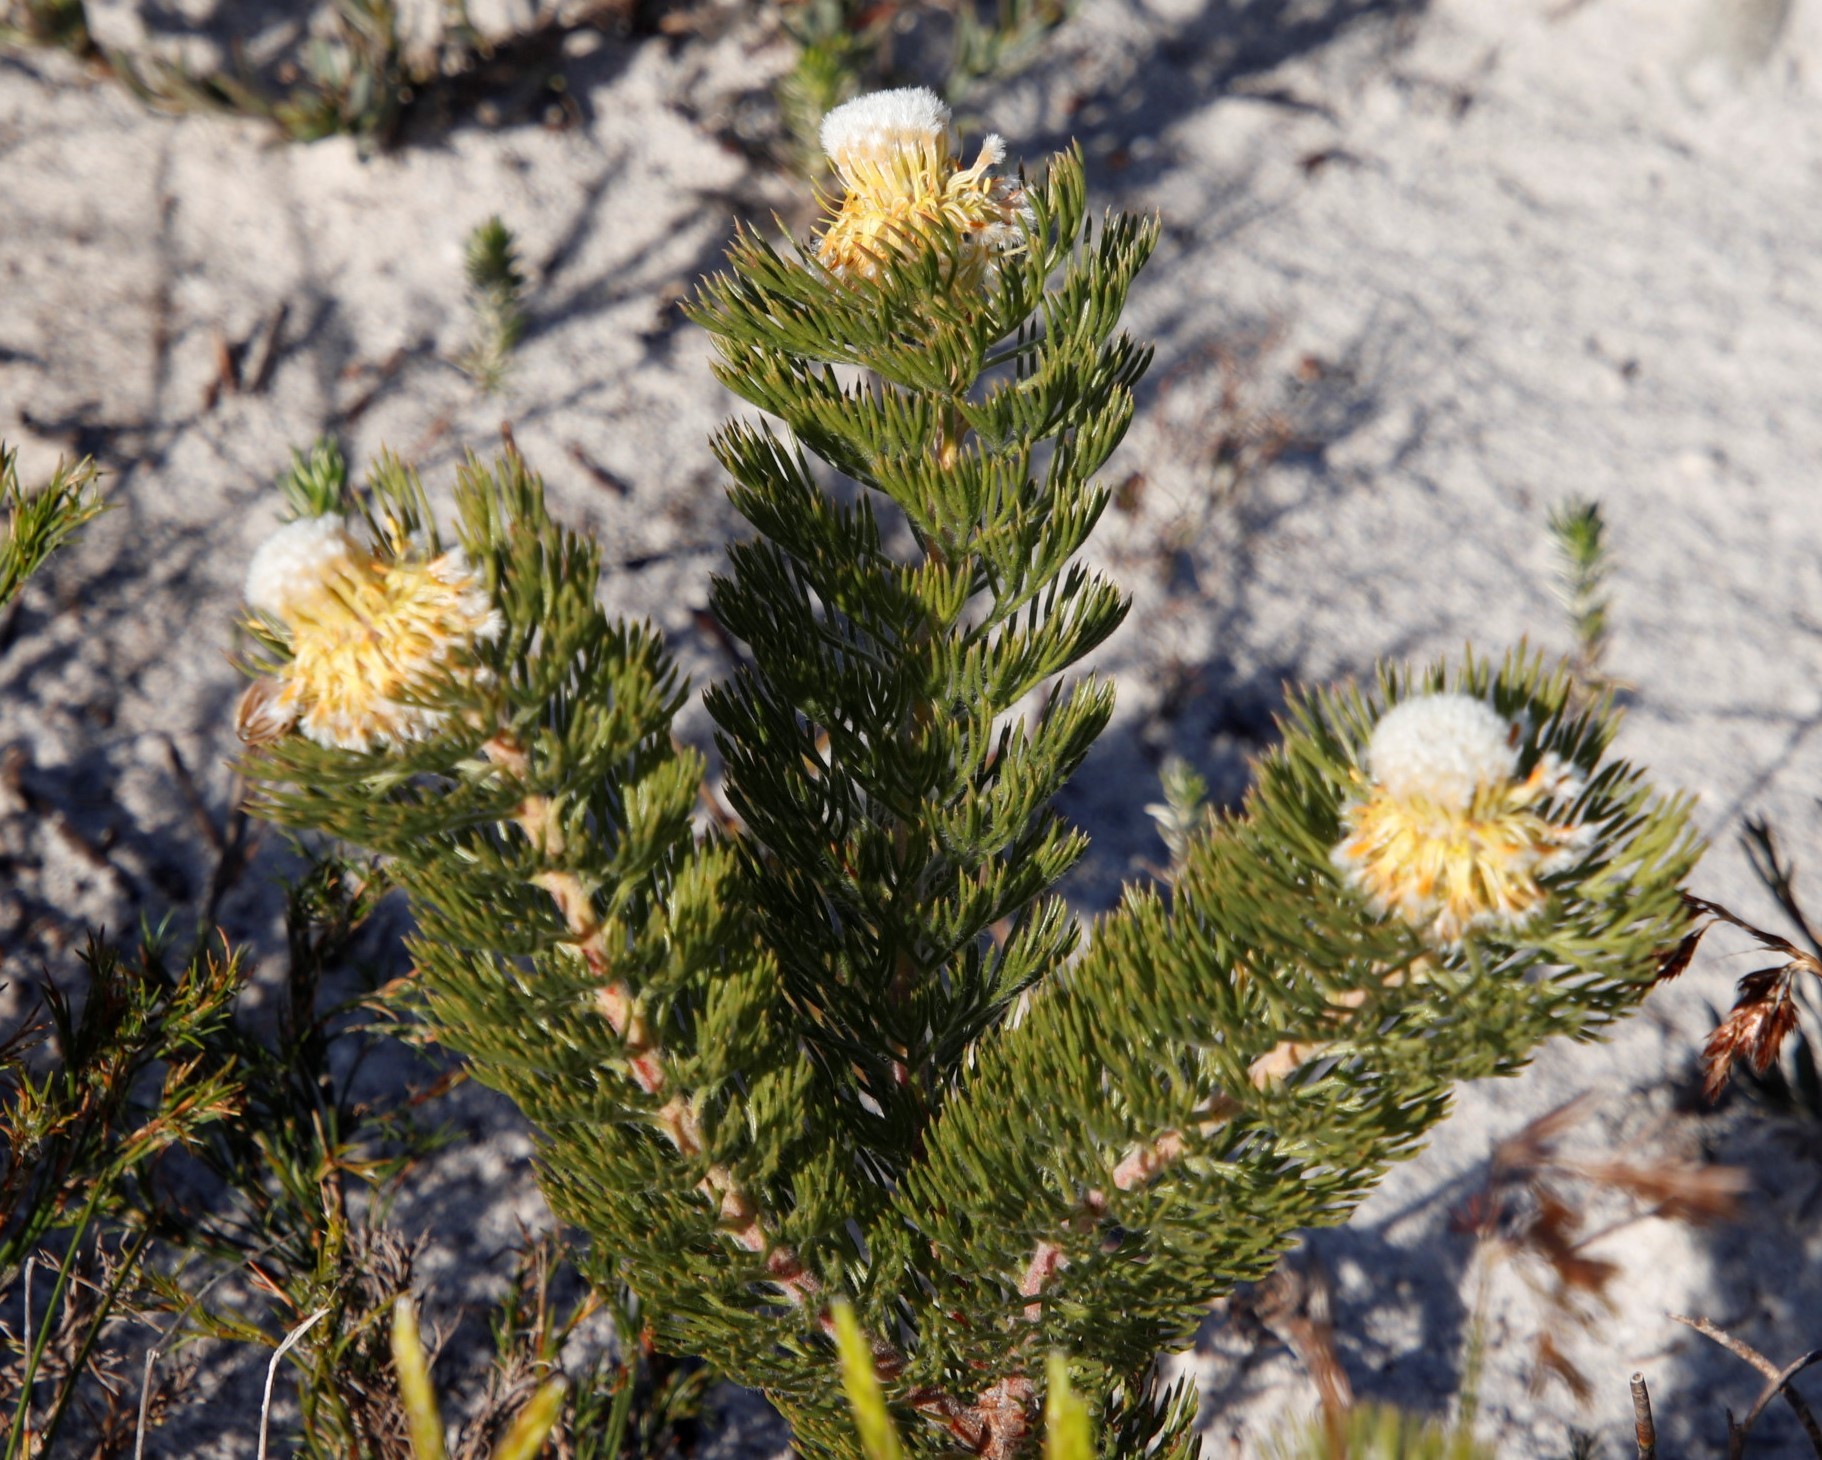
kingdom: Plantae
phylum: Tracheophyta
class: Magnoliopsida
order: Proteales
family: Proteaceae
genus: Serruria
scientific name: Serruria villosa
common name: Golden spiderhead
